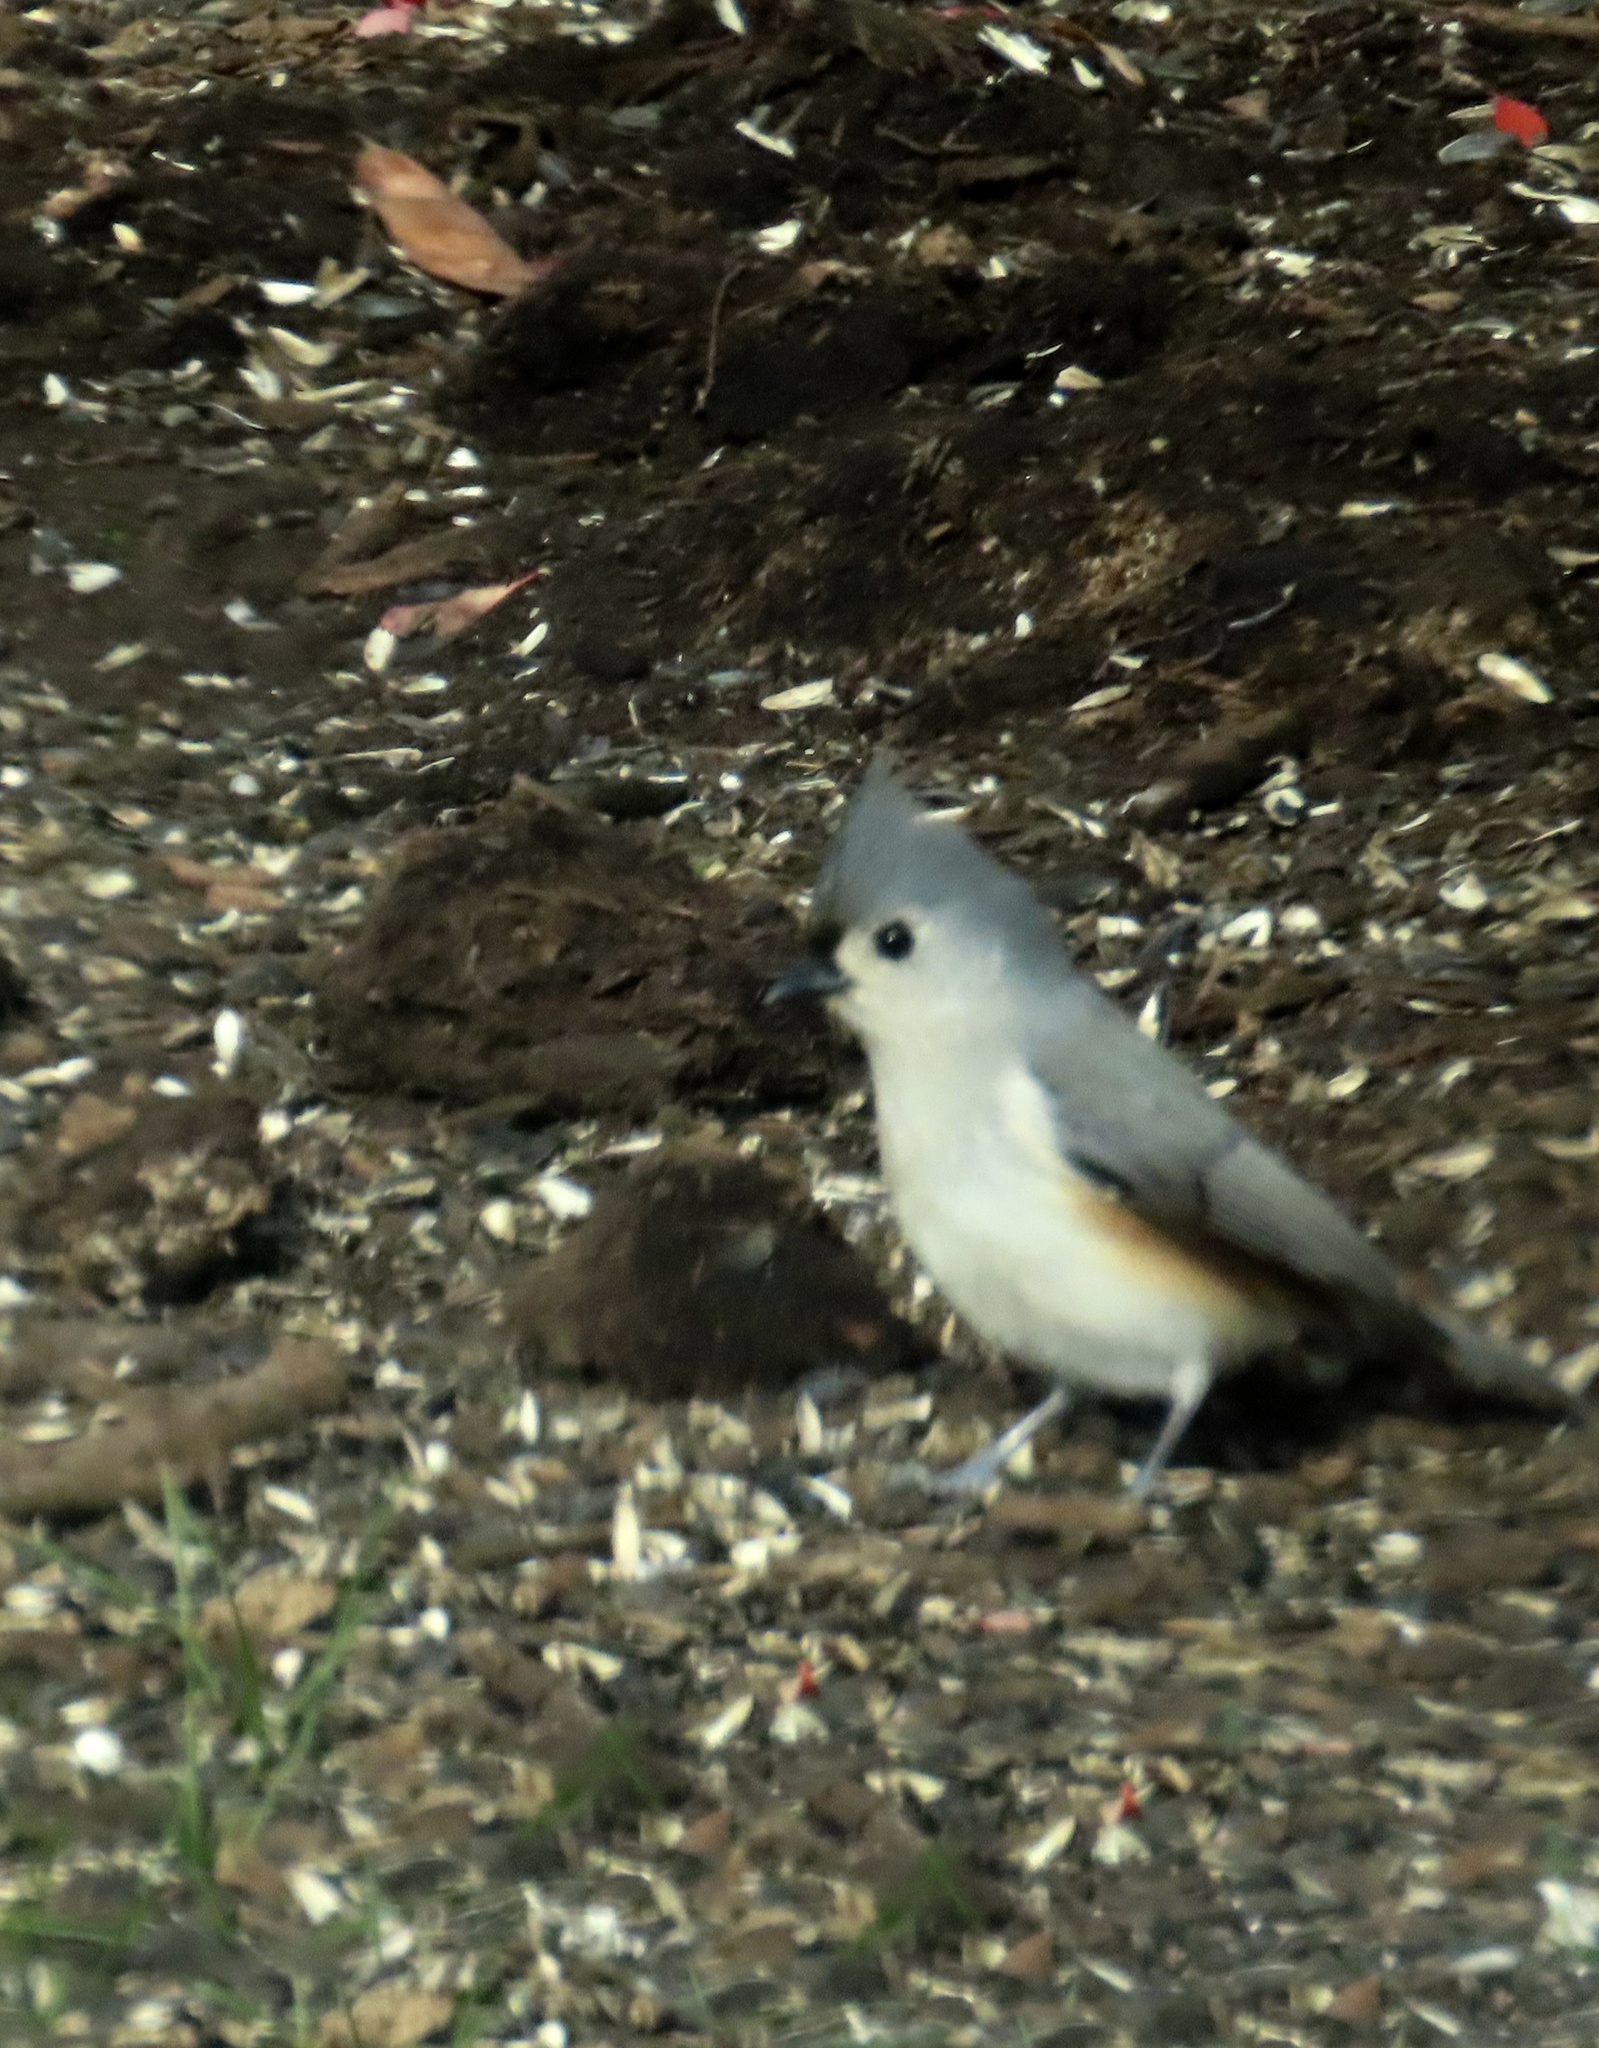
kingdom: Animalia
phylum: Chordata
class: Aves
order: Passeriformes
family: Paridae
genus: Baeolophus
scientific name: Baeolophus bicolor
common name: Tufted titmouse
